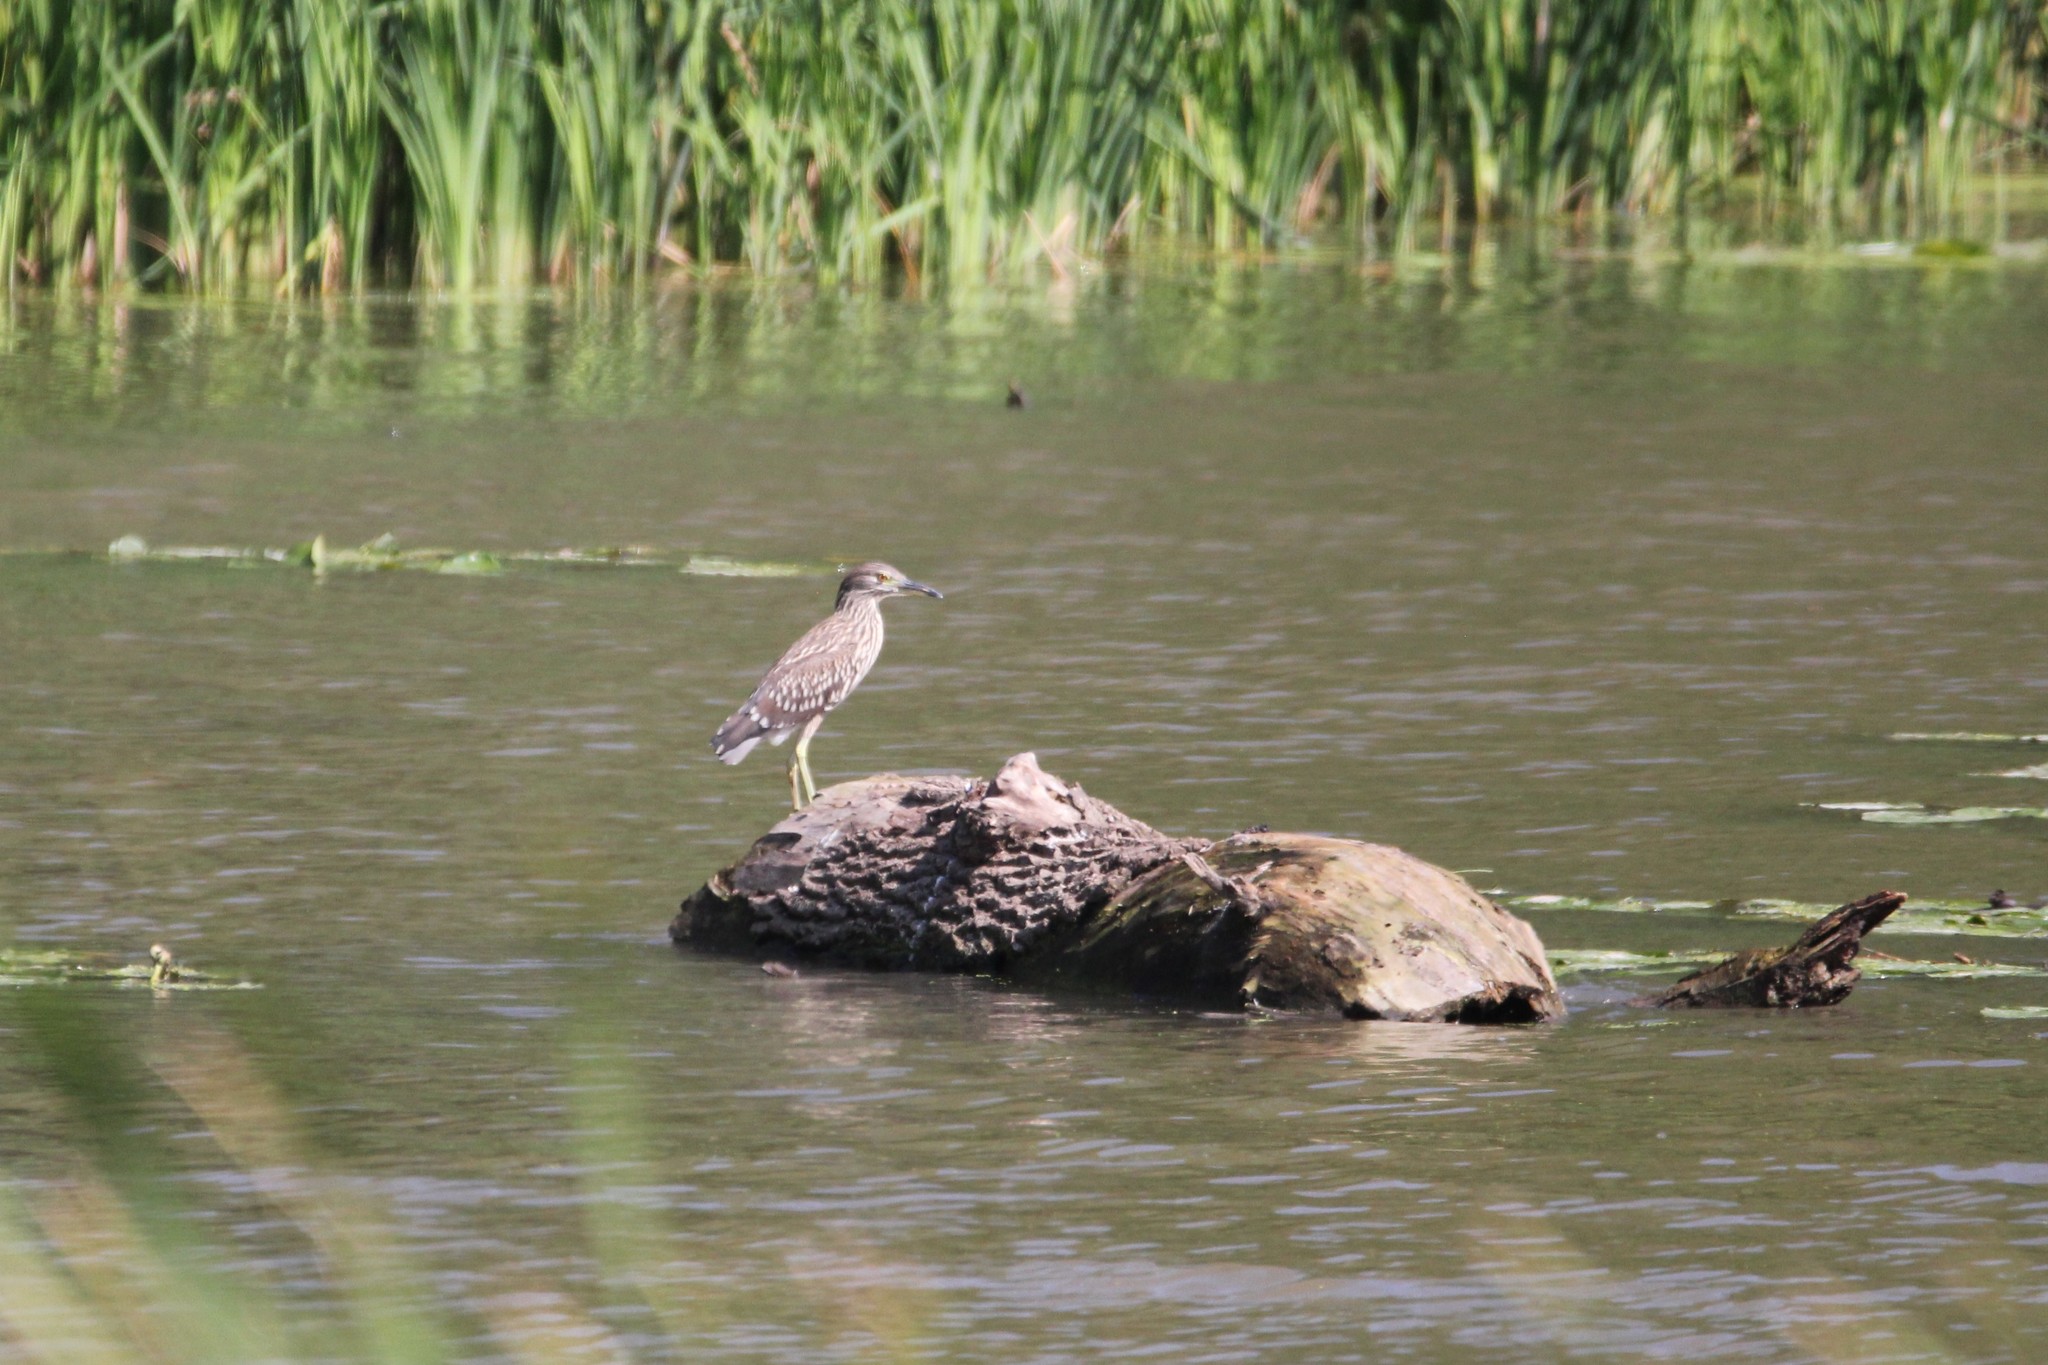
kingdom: Animalia
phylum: Chordata
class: Aves
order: Pelecaniformes
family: Ardeidae
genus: Nycticorax
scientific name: Nycticorax nycticorax
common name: Black-crowned night heron
